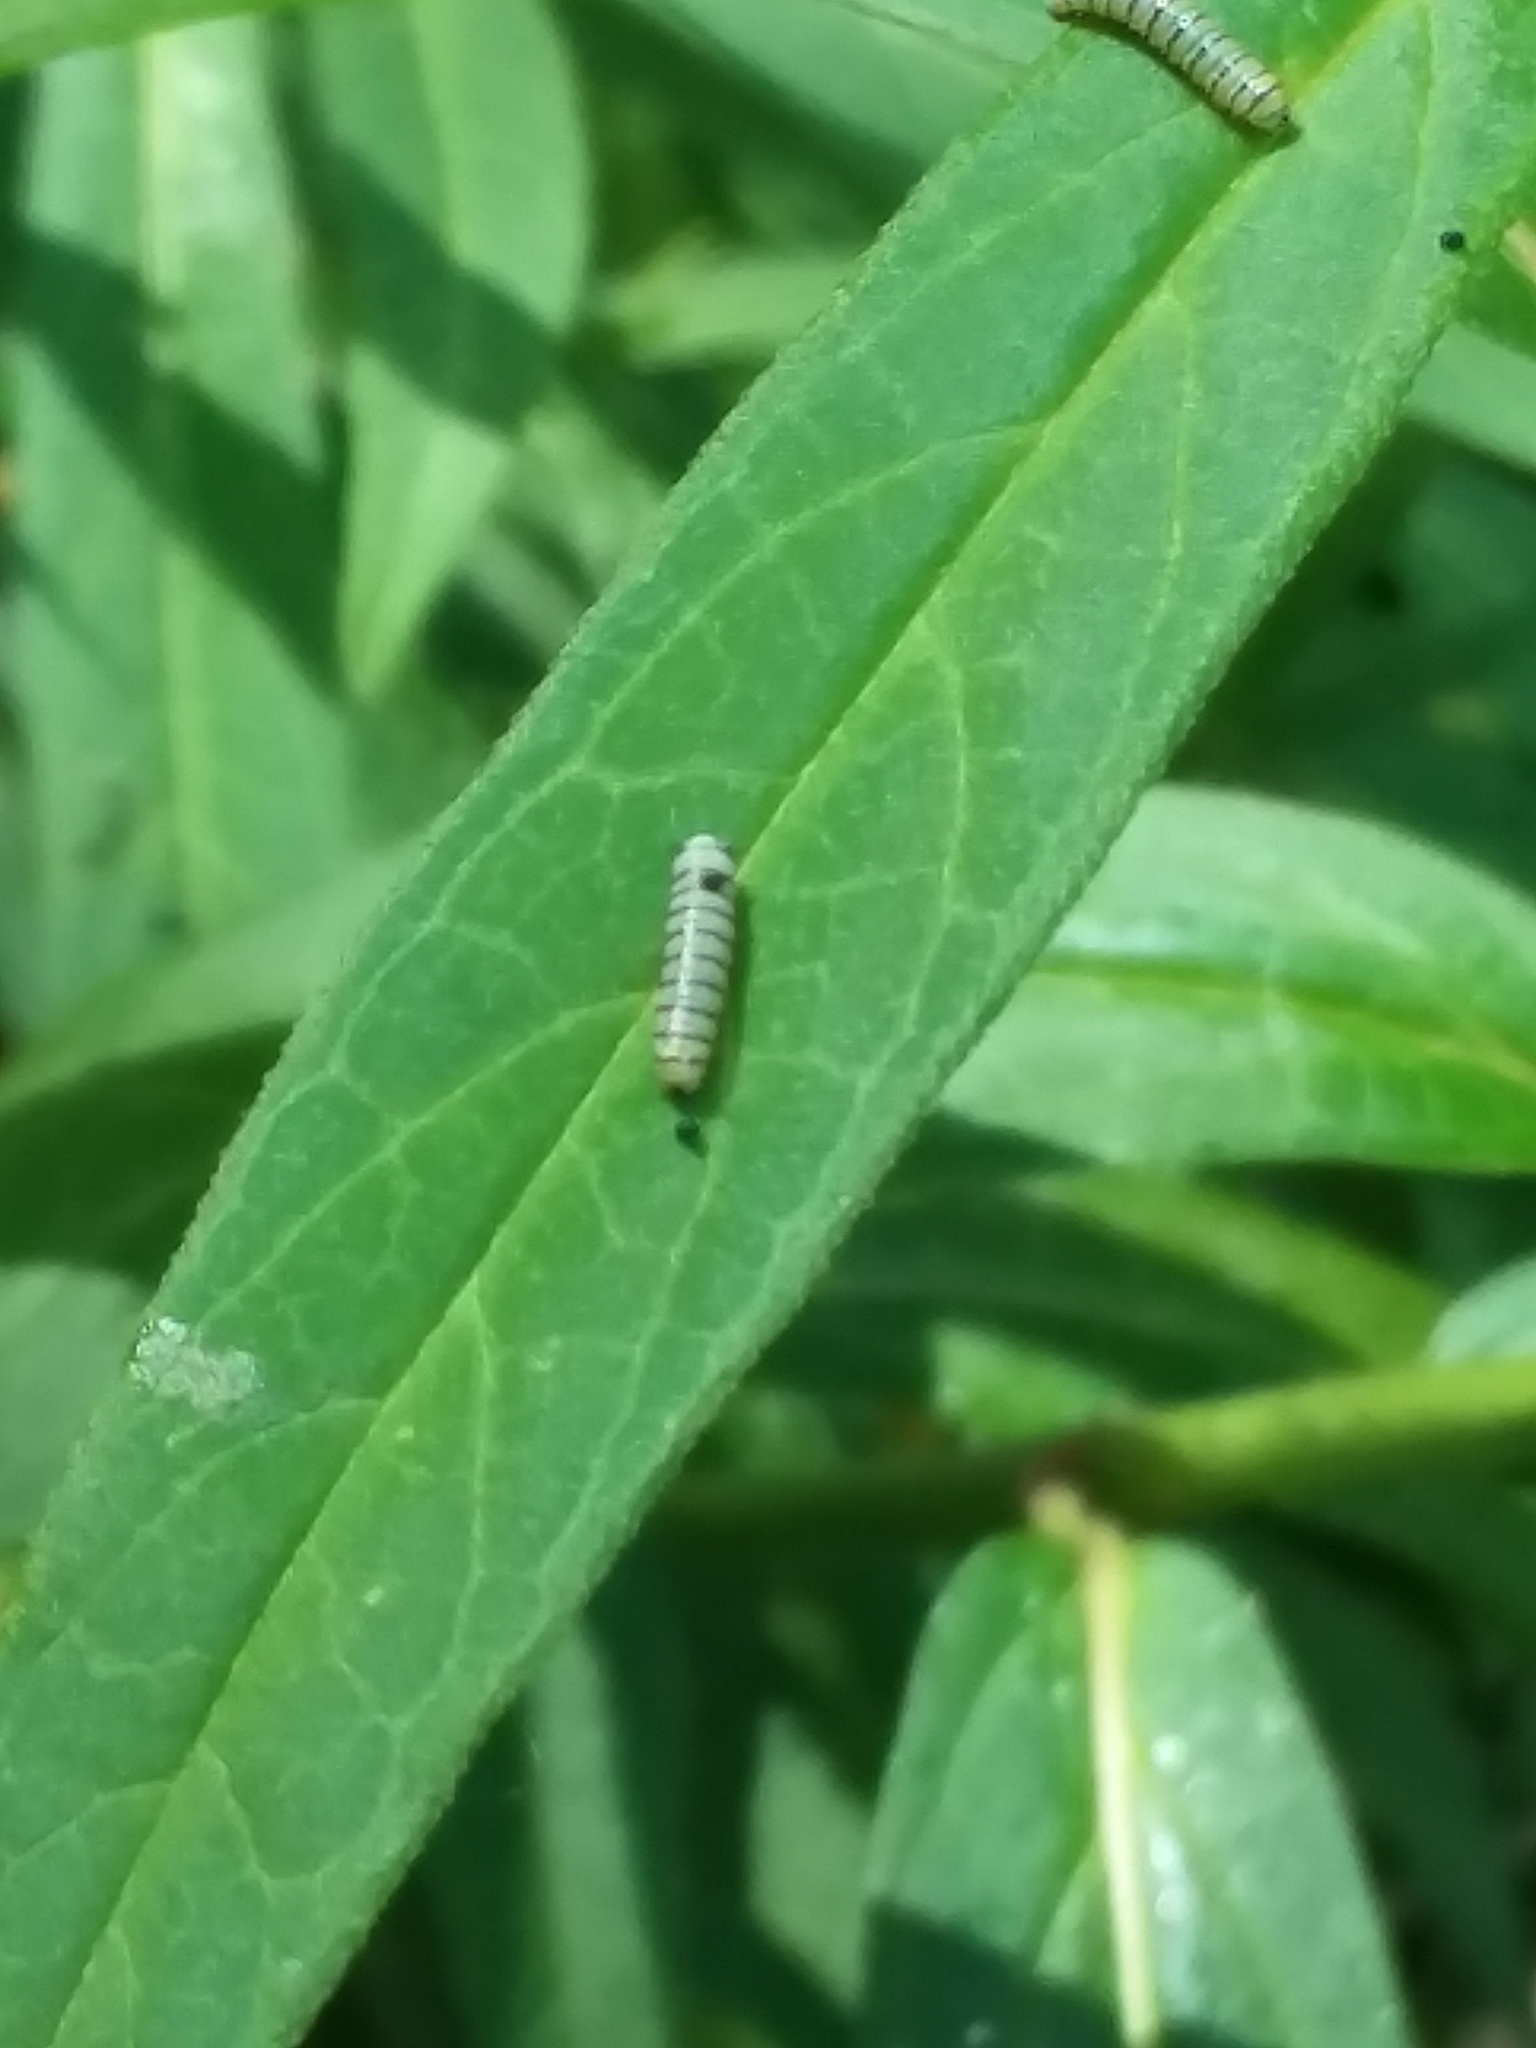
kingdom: Animalia
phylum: Arthropoda
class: Insecta
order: Lepidoptera
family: Nymphalidae
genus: Danaus
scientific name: Danaus plexippus
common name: Monarch
